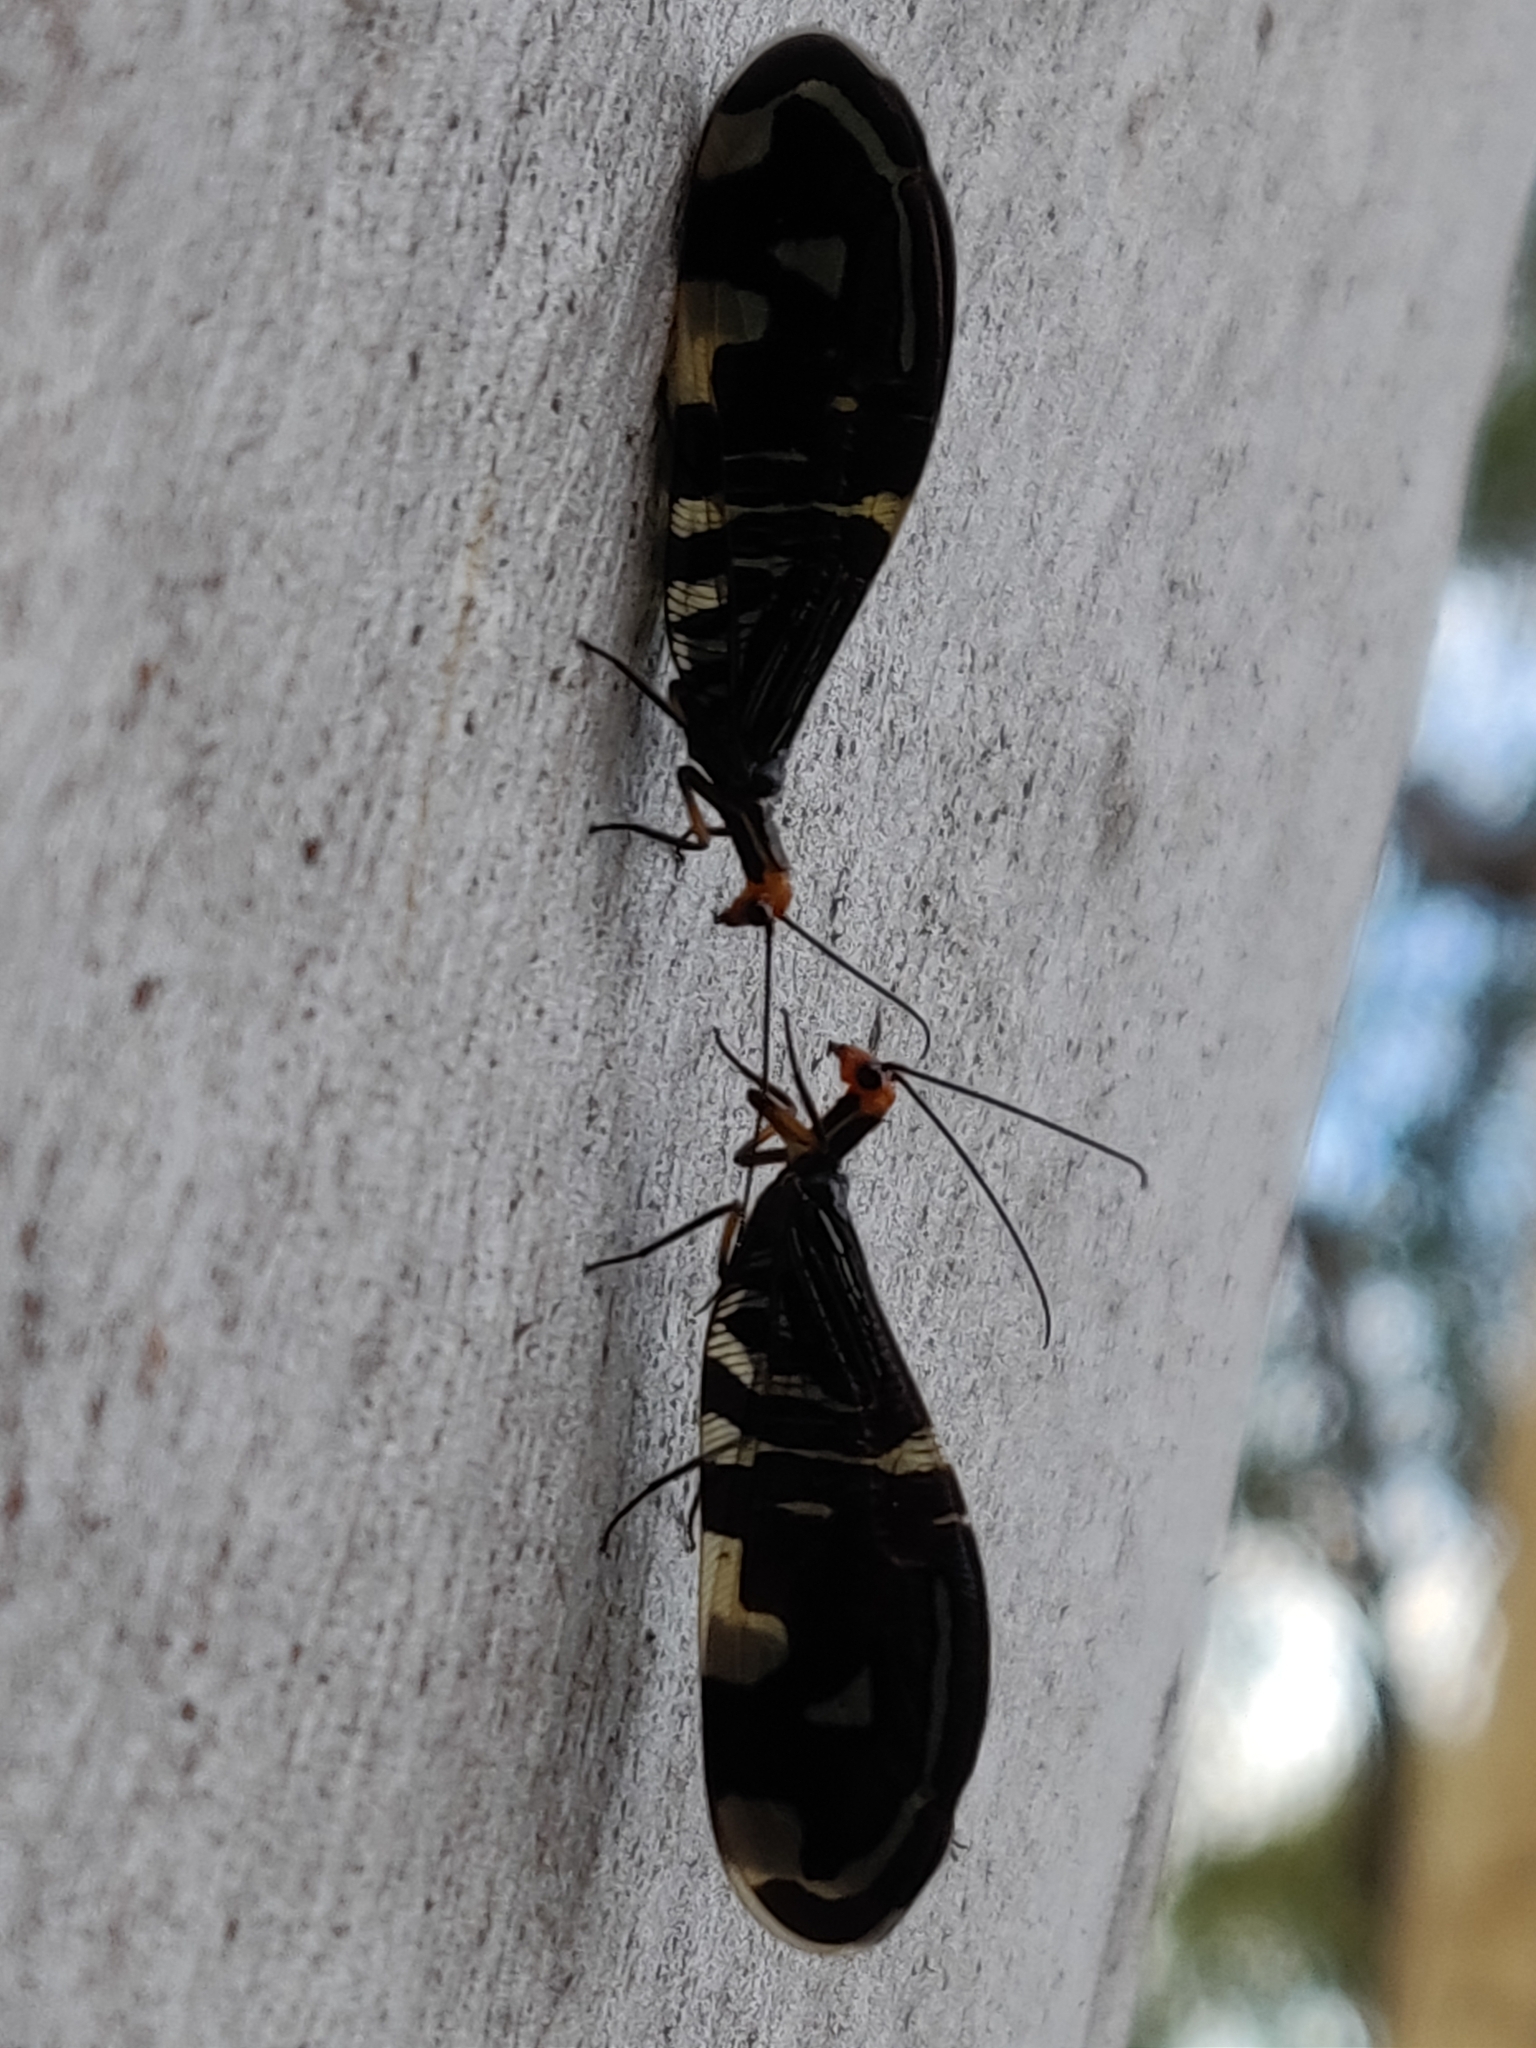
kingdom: Animalia
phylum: Arthropoda
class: Insecta
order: Neuroptera
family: Osmylidae
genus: Porismus
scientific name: Porismus strigatus
